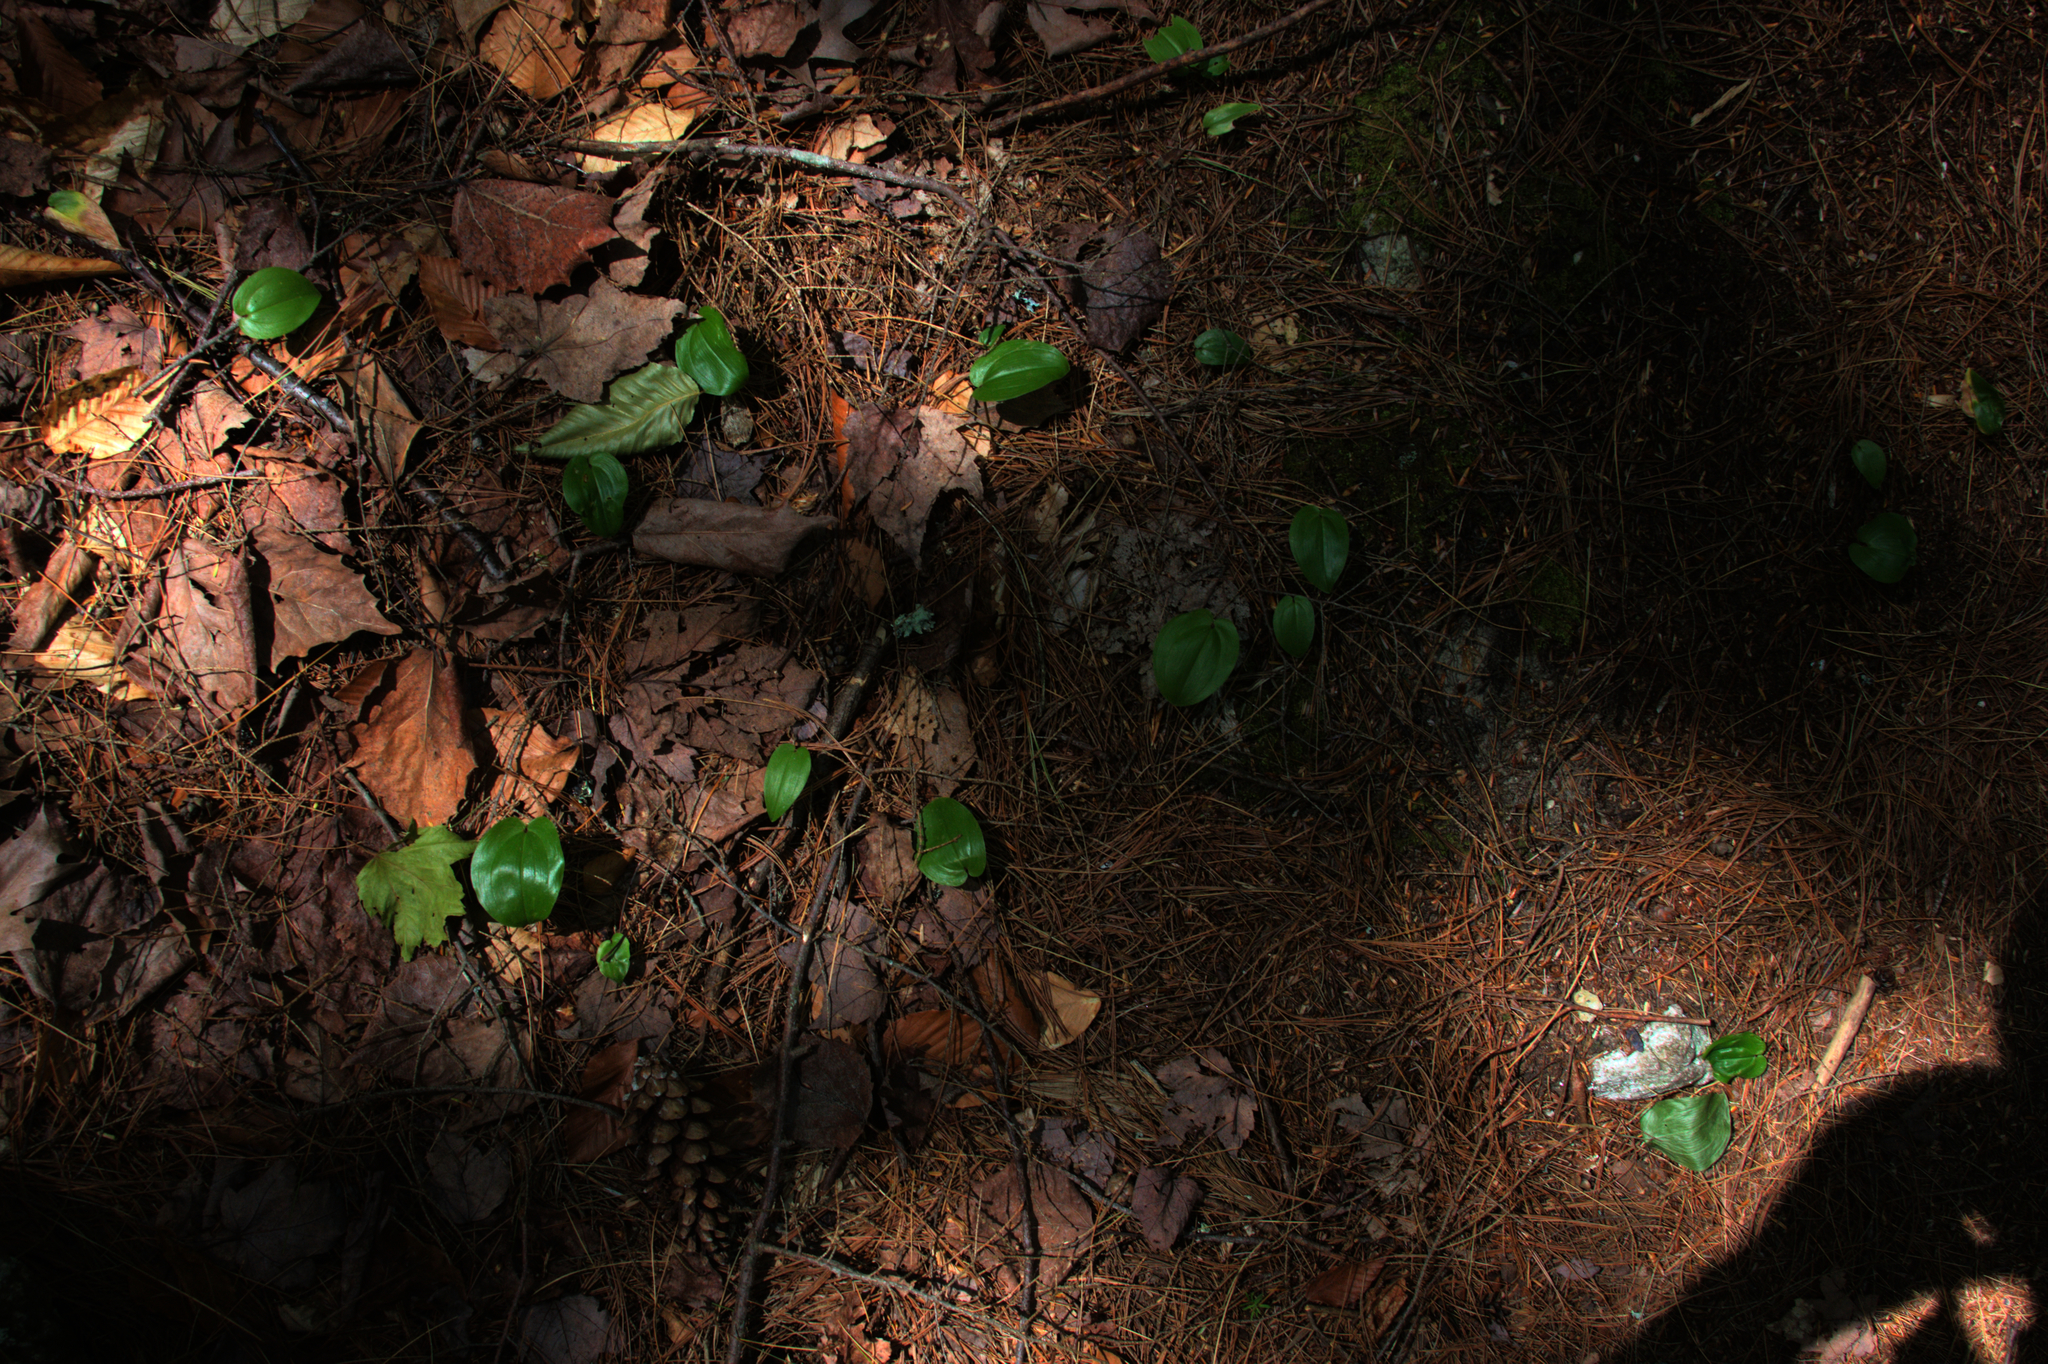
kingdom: Plantae
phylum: Tracheophyta
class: Liliopsida
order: Asparagales
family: Asparagaceae
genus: Maianthemum
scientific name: Maianthemum canadense
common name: False lily-of-the-valley
